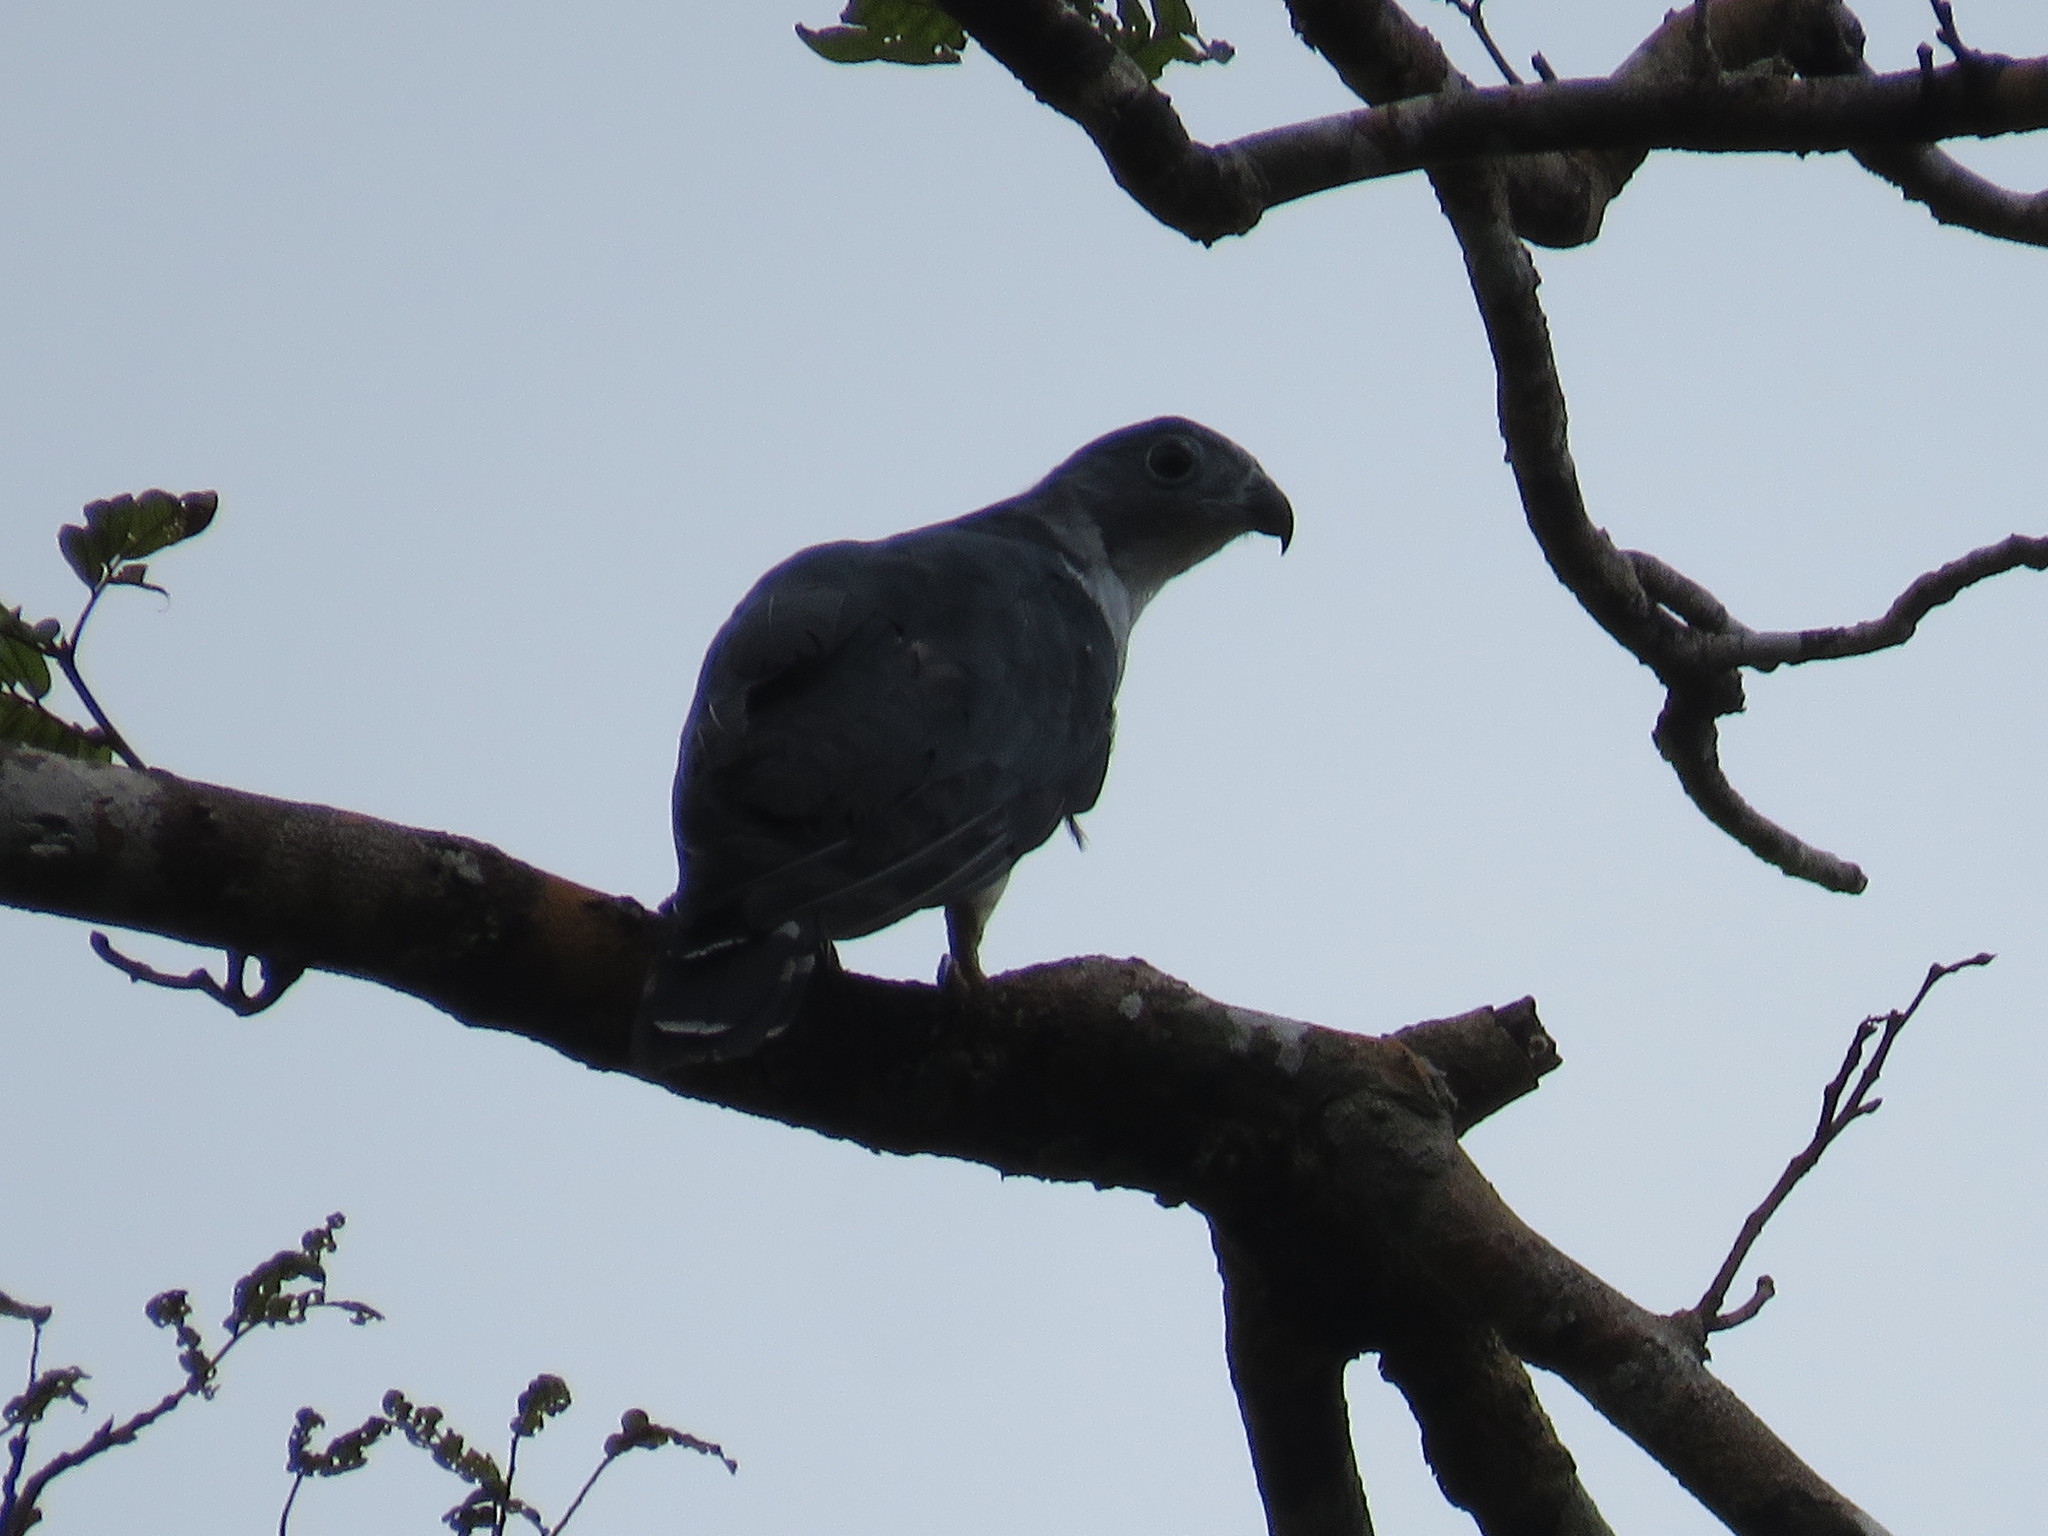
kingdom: Animalia
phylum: Chordata
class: Aves
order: Accipitriformes
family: Accipitridae
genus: Leptodon
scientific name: Leptodon cayanensis
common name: Gray-headed kite
